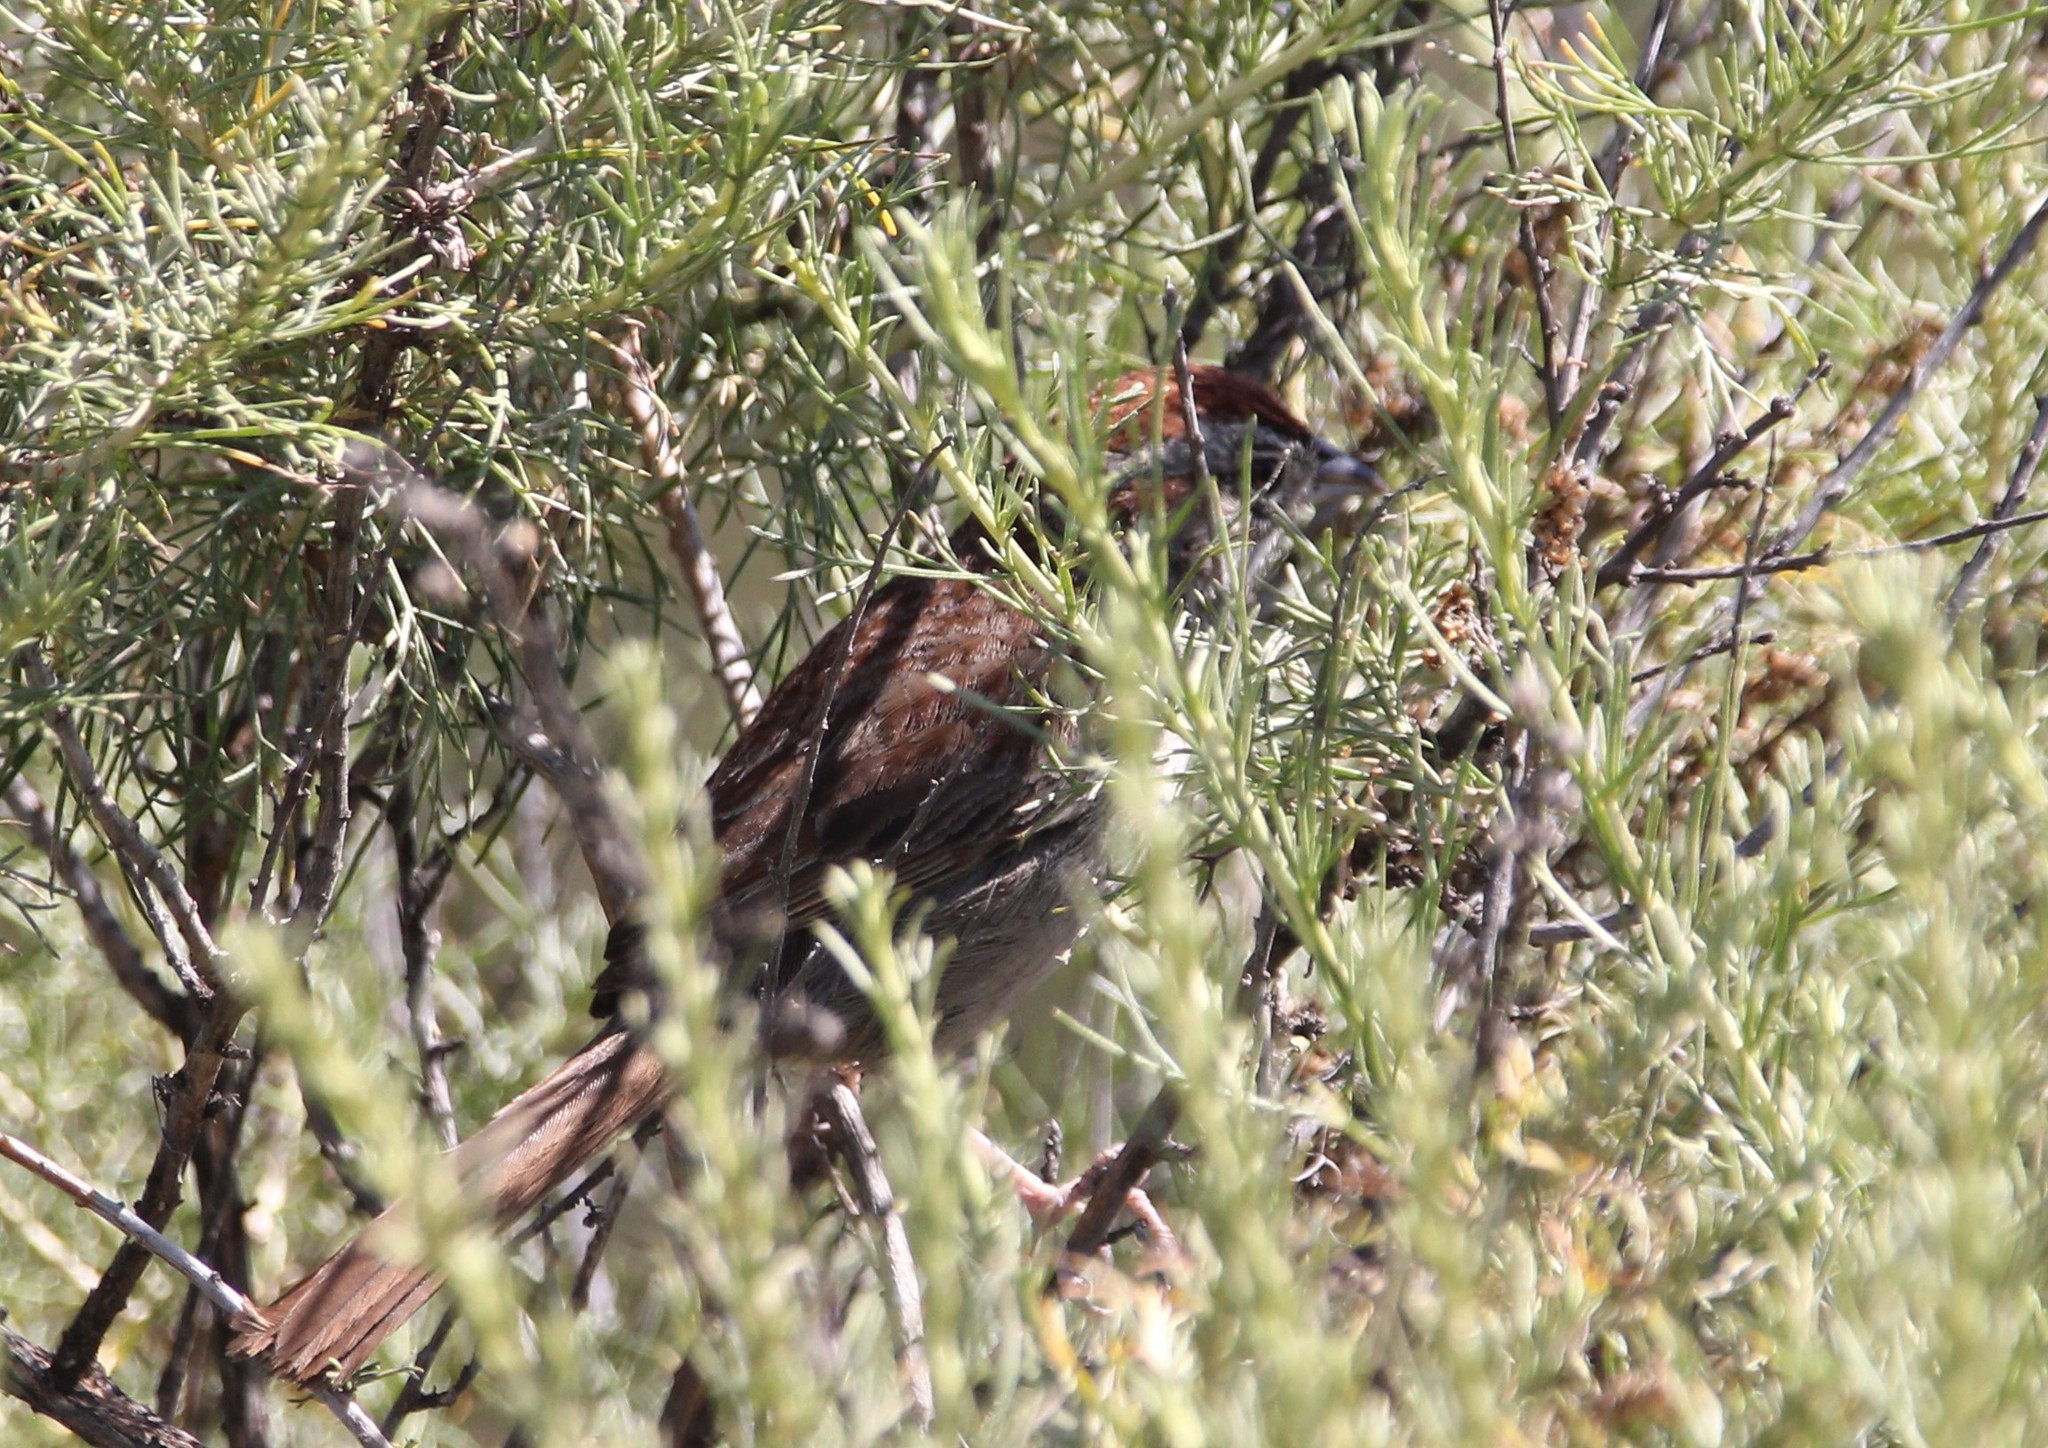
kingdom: Animalia
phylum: Chordata
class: Aves
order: Passeriformes
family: Passerellidae
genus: Aimophila
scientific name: Aimophila ruficeps
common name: Rufous-crowned sparrow
